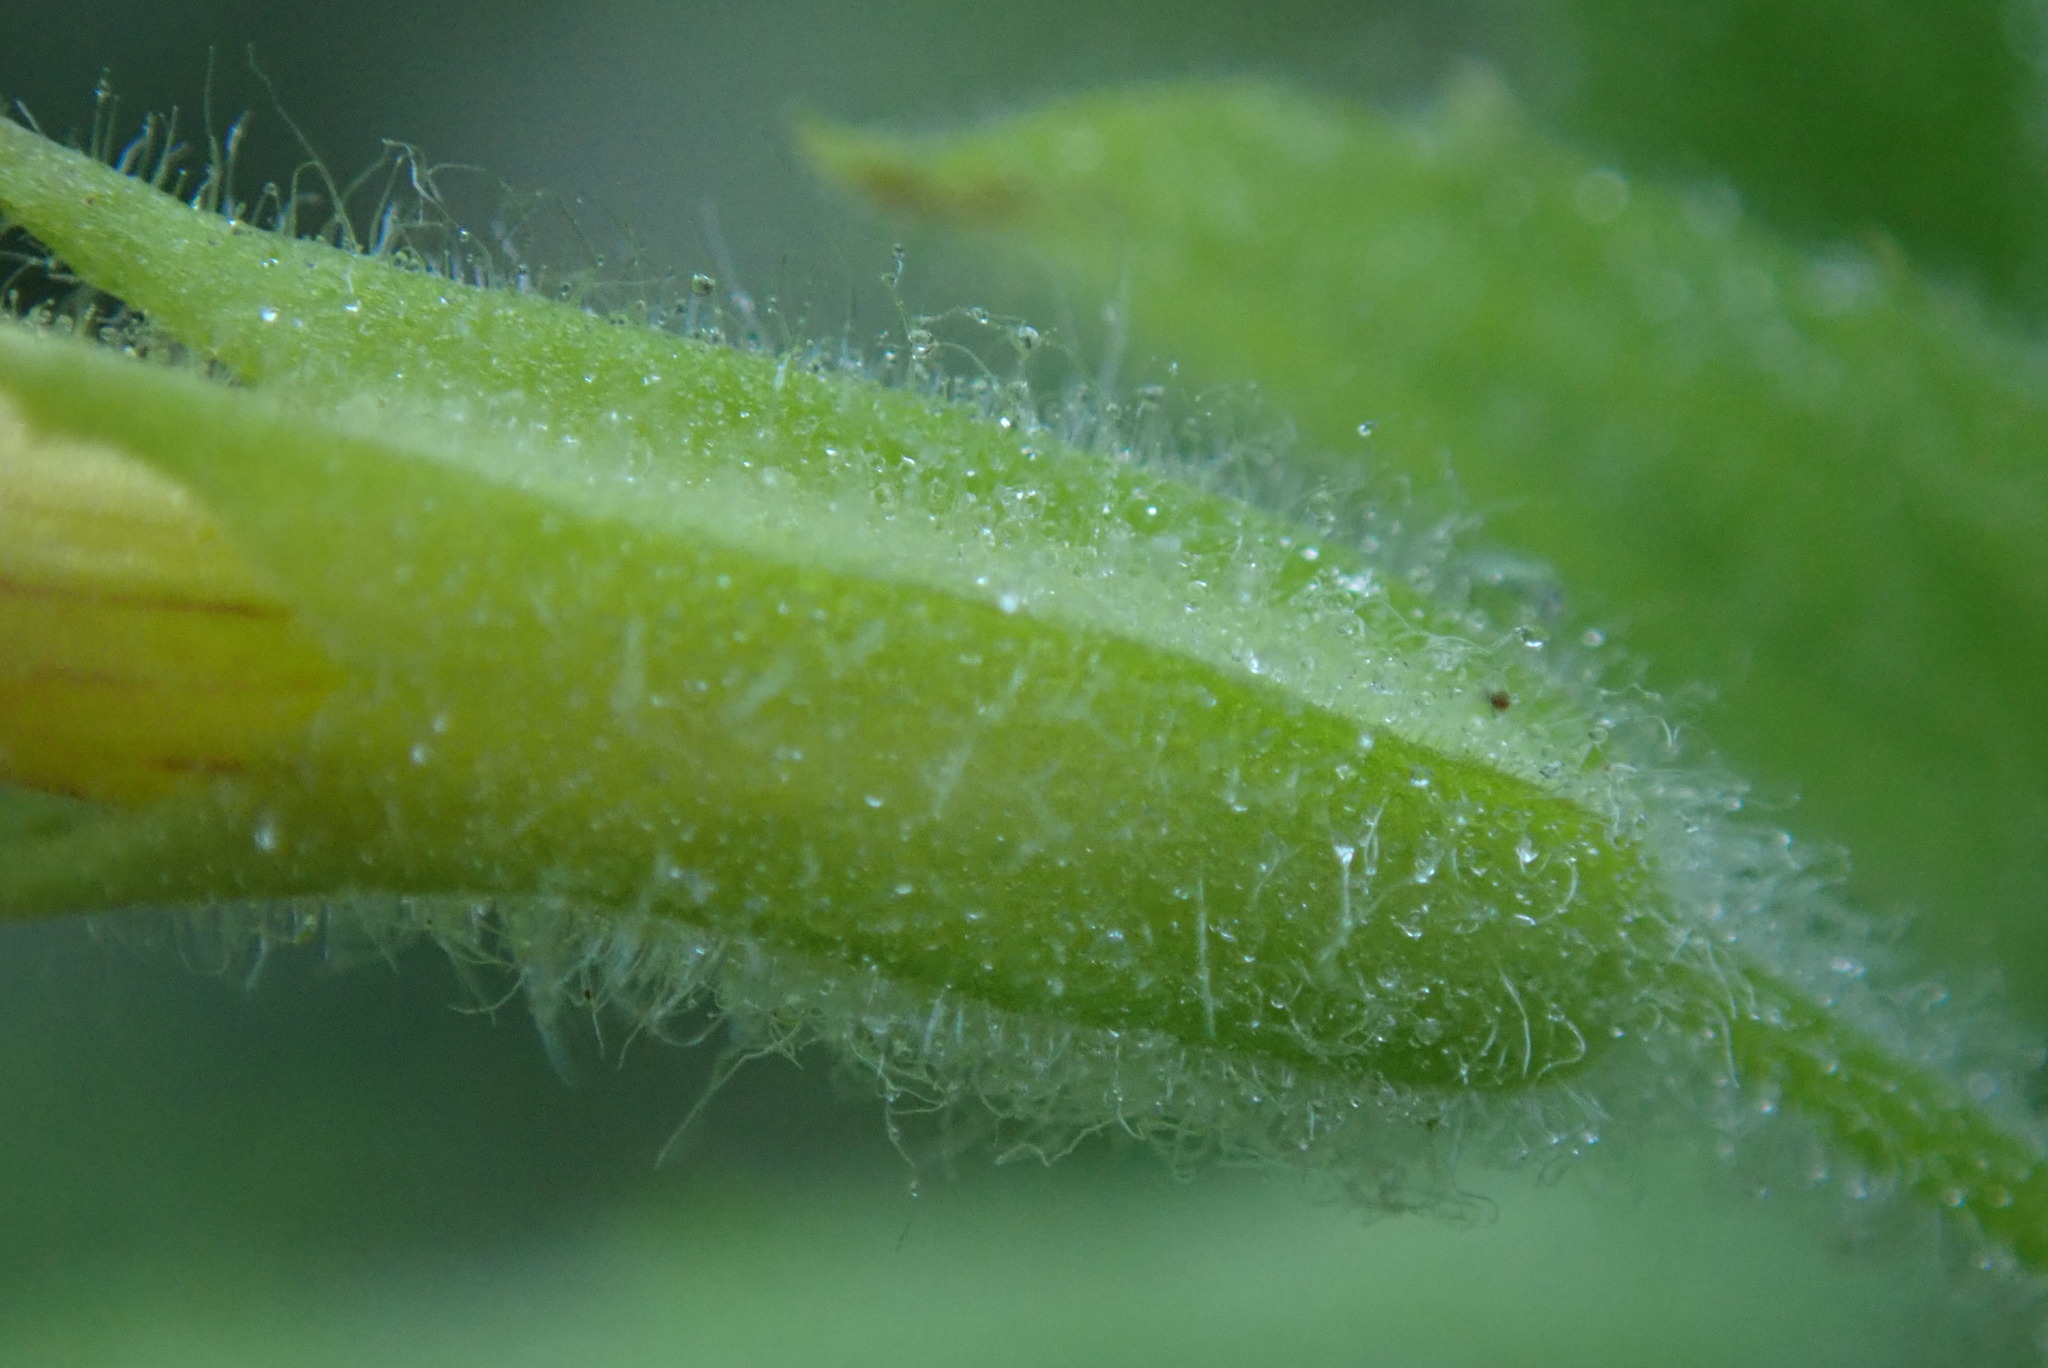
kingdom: Plantae
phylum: Tracheophyta
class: Magnoliopsida
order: Lamiales
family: Phrymaceae
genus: Erythranthe
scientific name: Erythranthe ptilota
